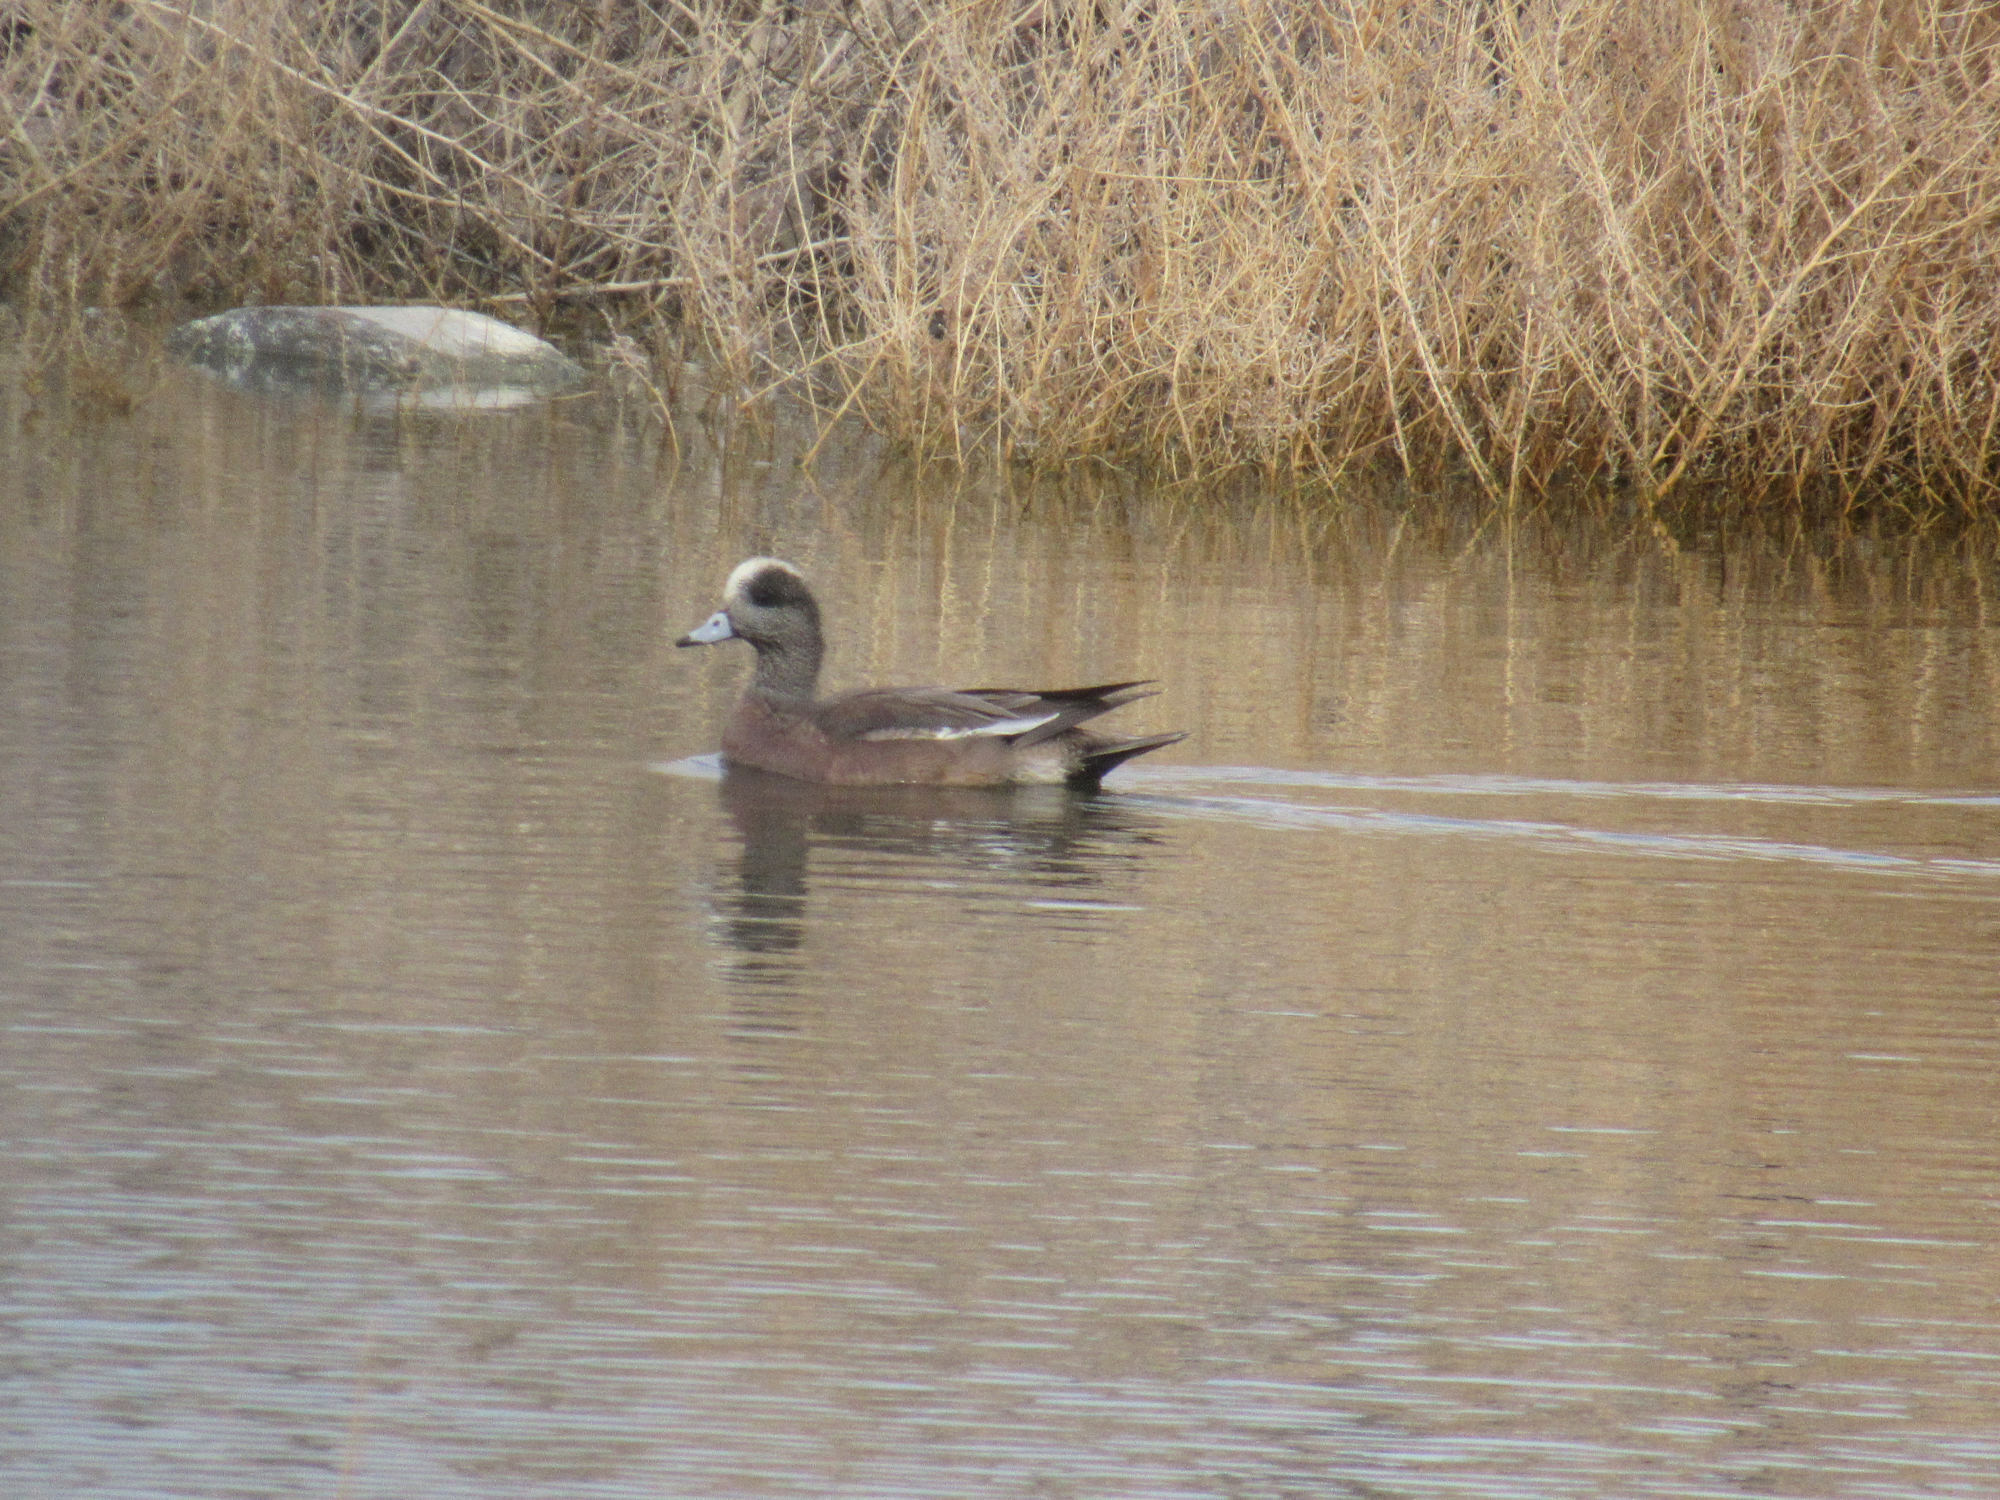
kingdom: Animalia
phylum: Chordata
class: Aves
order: Anseriformes
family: Anatidae
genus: Mareca
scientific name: Mareca americana
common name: American wigeon
